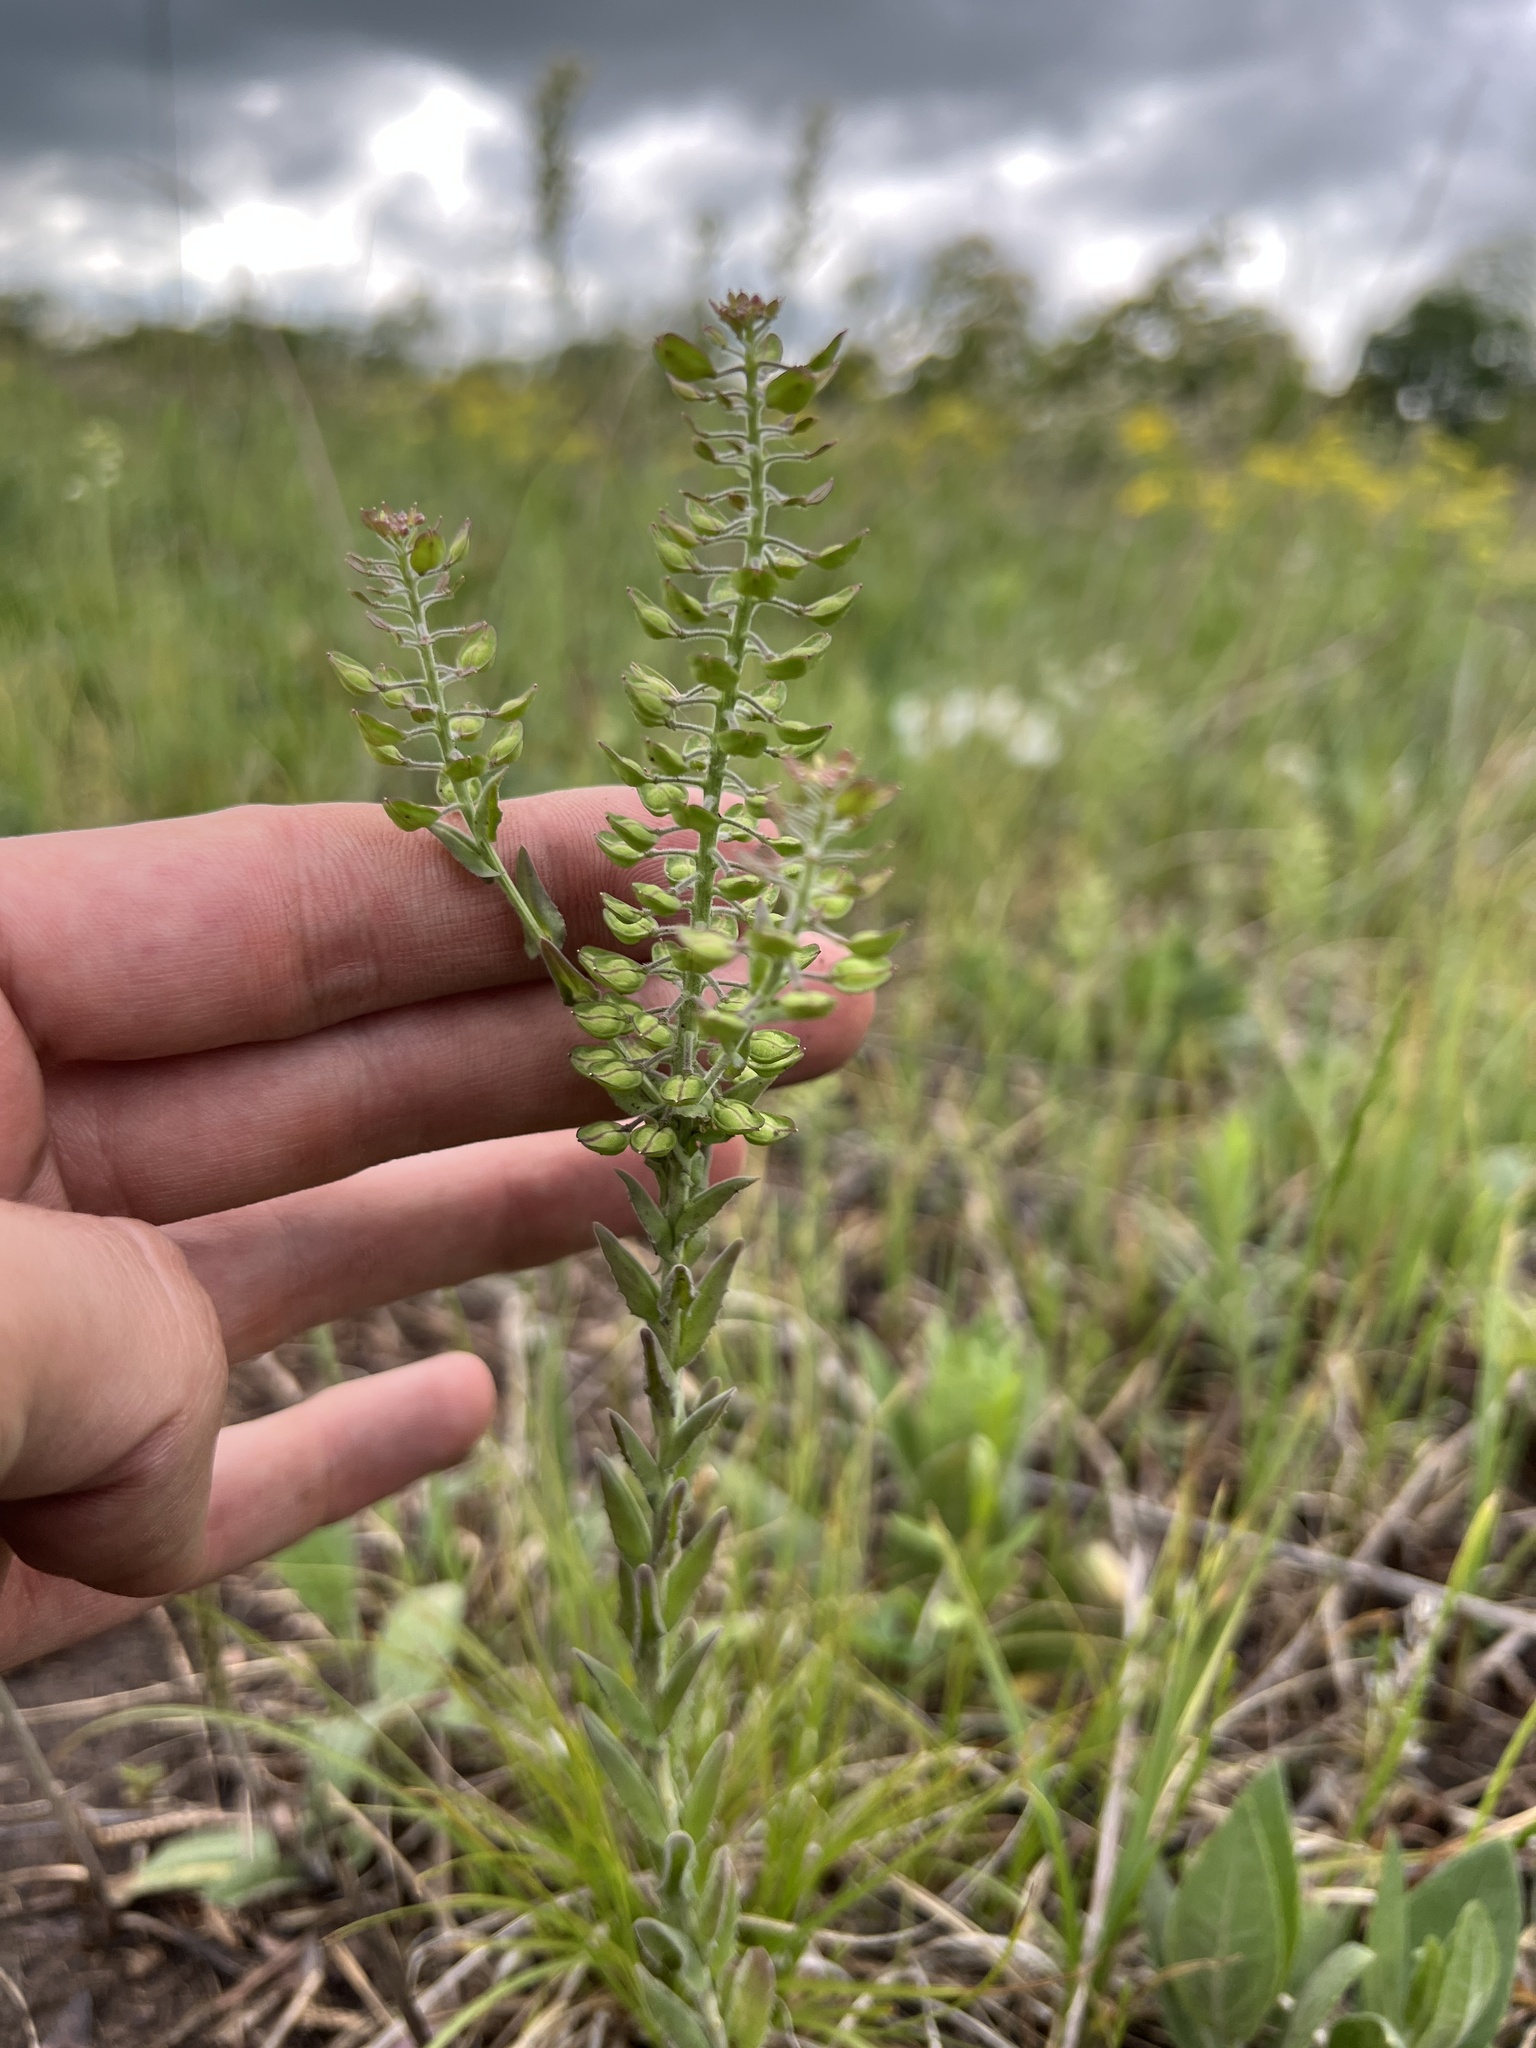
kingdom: Plantae
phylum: Tracheophyta
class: Magnoliopsida
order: Brassicales
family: Brassicaceae
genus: Lepidium
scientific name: Lepidium campestre
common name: Field pepperwort
